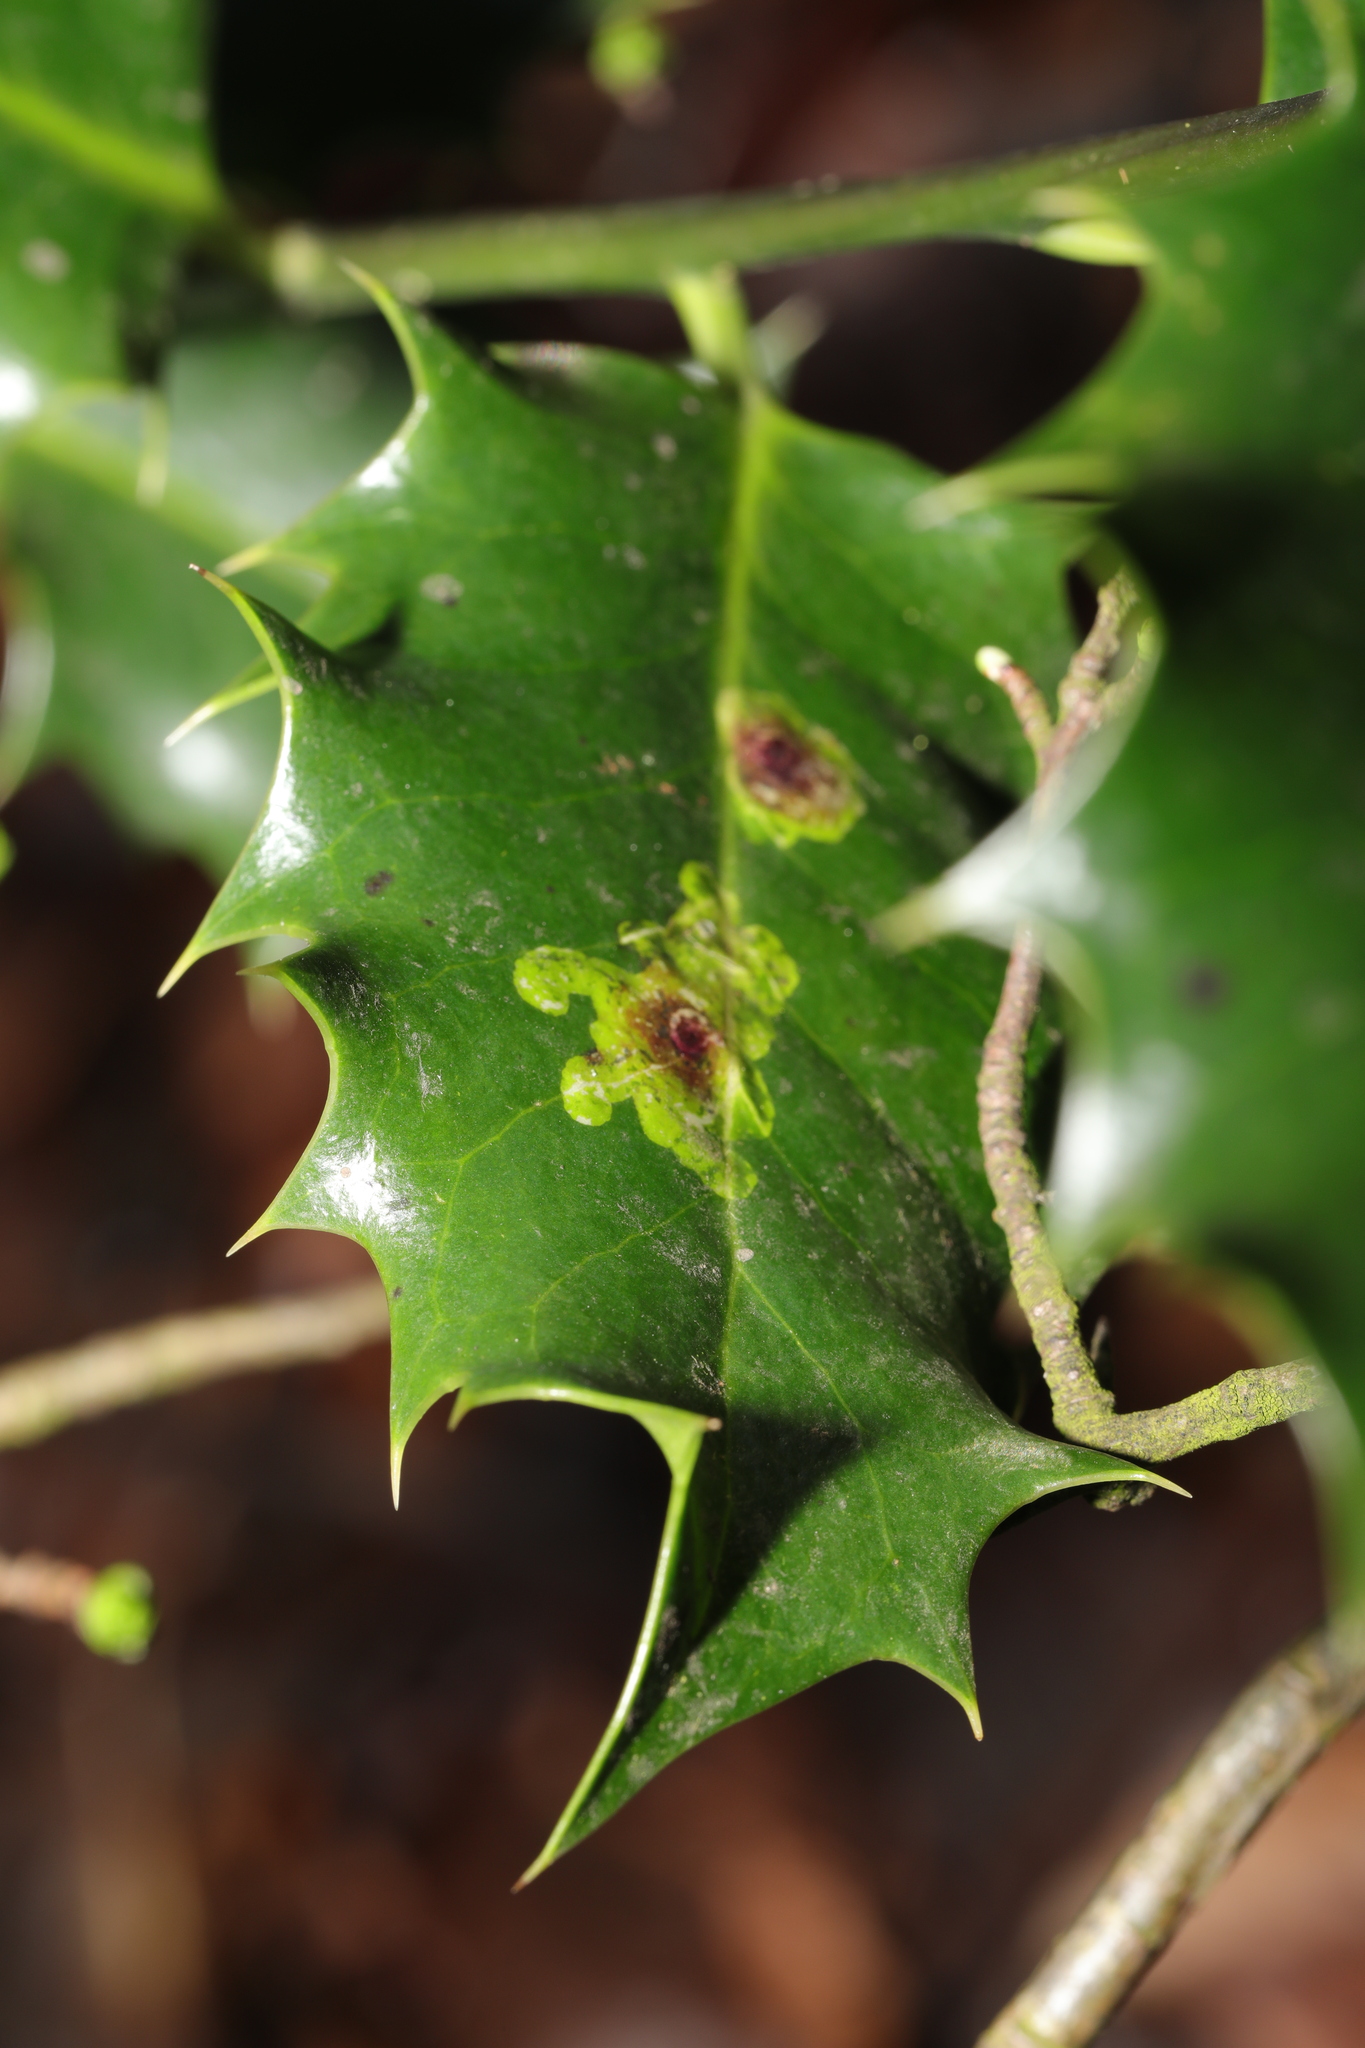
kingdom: Animalia
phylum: Arthropoda
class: Insecta
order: Diptera
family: Agromyzidae
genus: Phytomyza
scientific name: Phytomyza ilicis
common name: Holly leafminer
